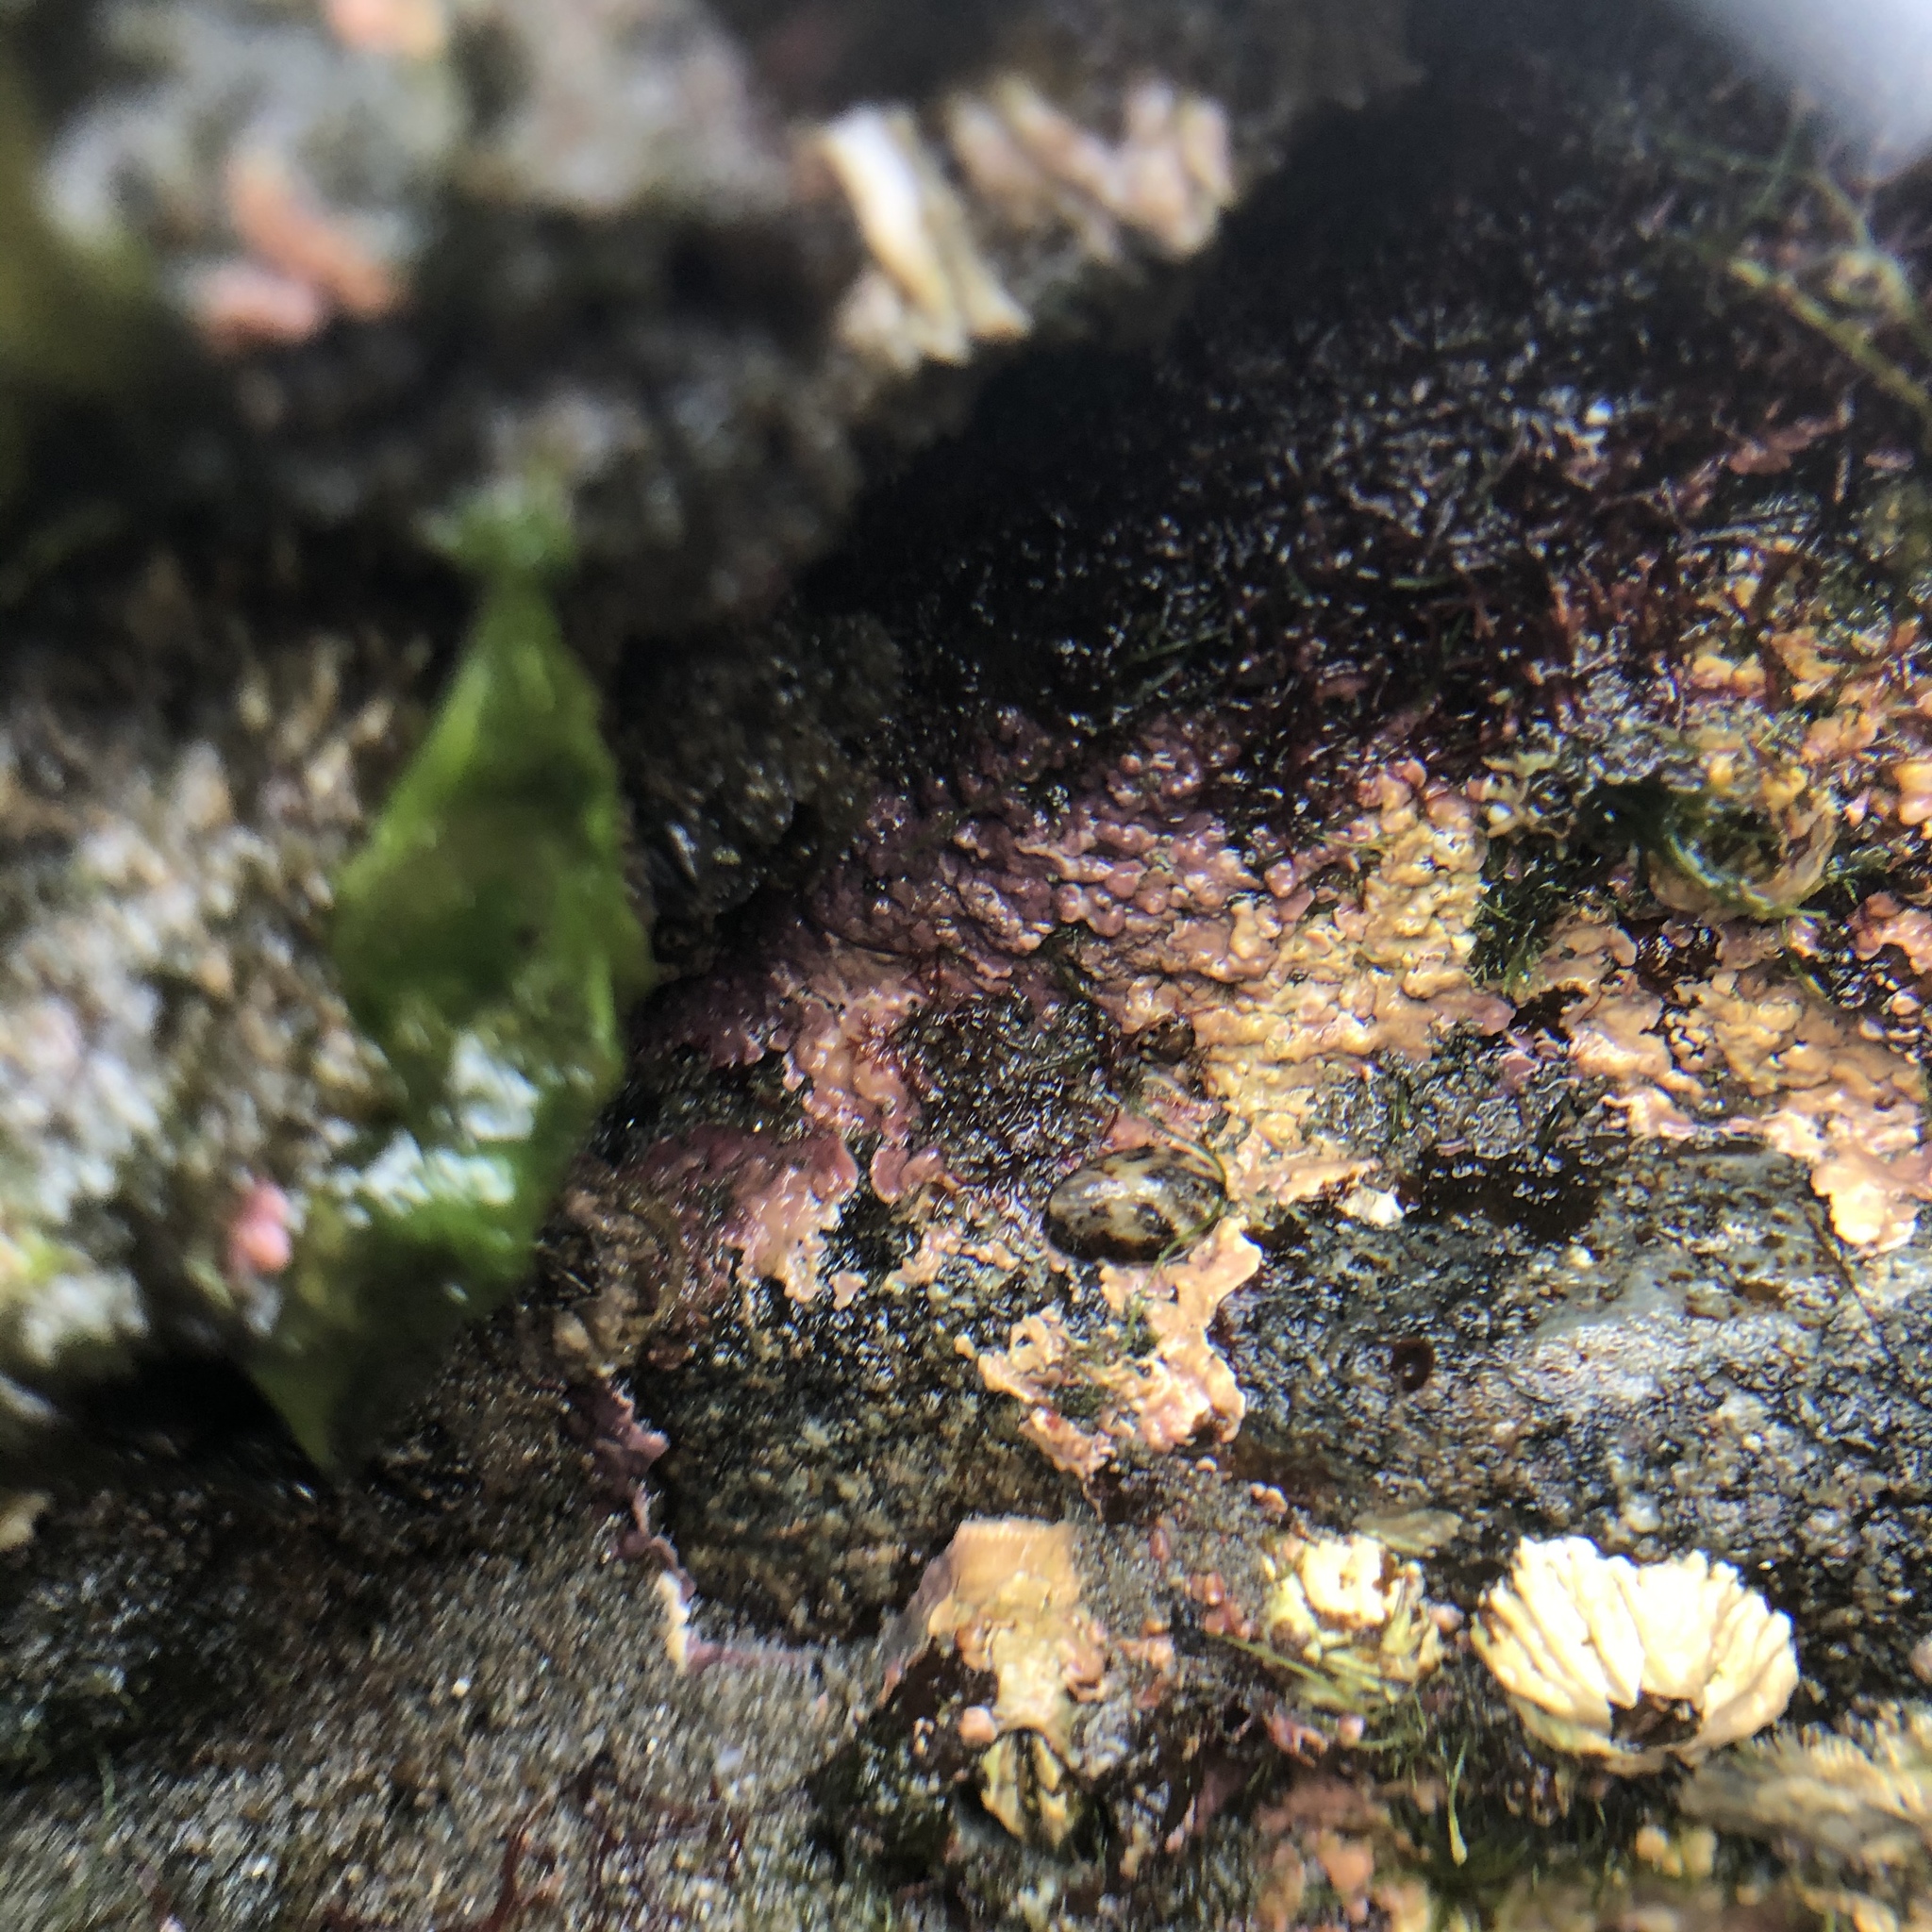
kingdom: Plantae
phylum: Rhodophyta
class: Florideophyceae
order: Corallinales
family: Corallinaceae
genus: Chamberlainium
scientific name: Chamberlainium tumidum
